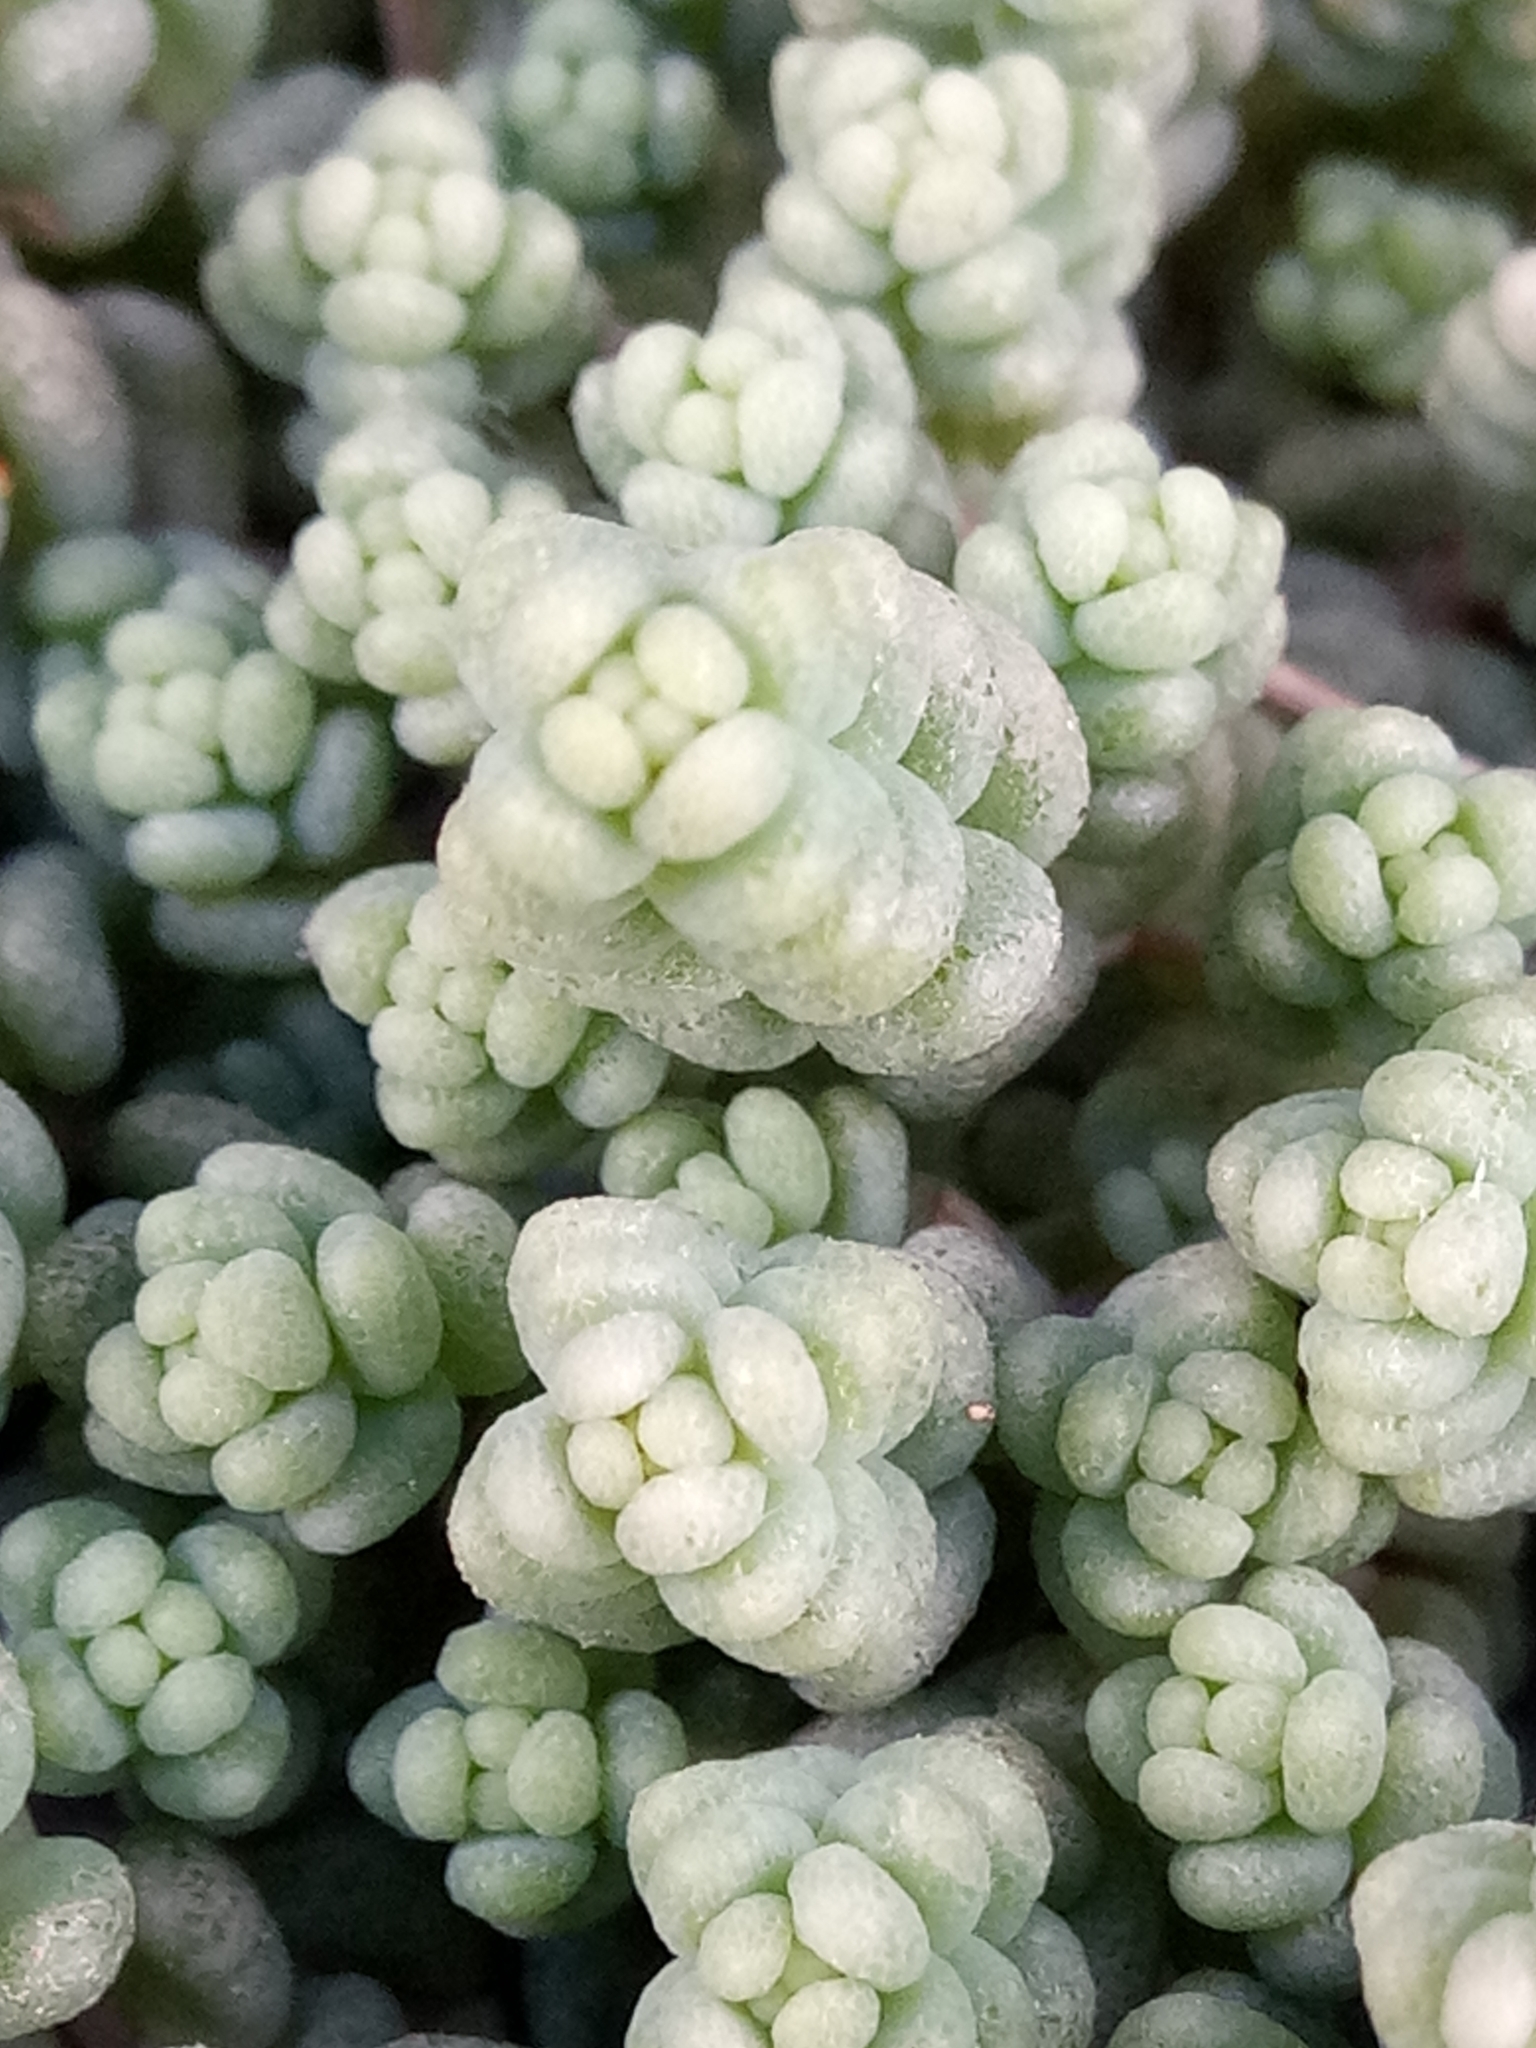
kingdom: Plantae
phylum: Tracheophyta
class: Magnoliopsida
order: Saxifragales
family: Crassulaceae
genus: Sedum
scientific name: Sedum dasyphyllum
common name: Thick-leaf stonecrop
